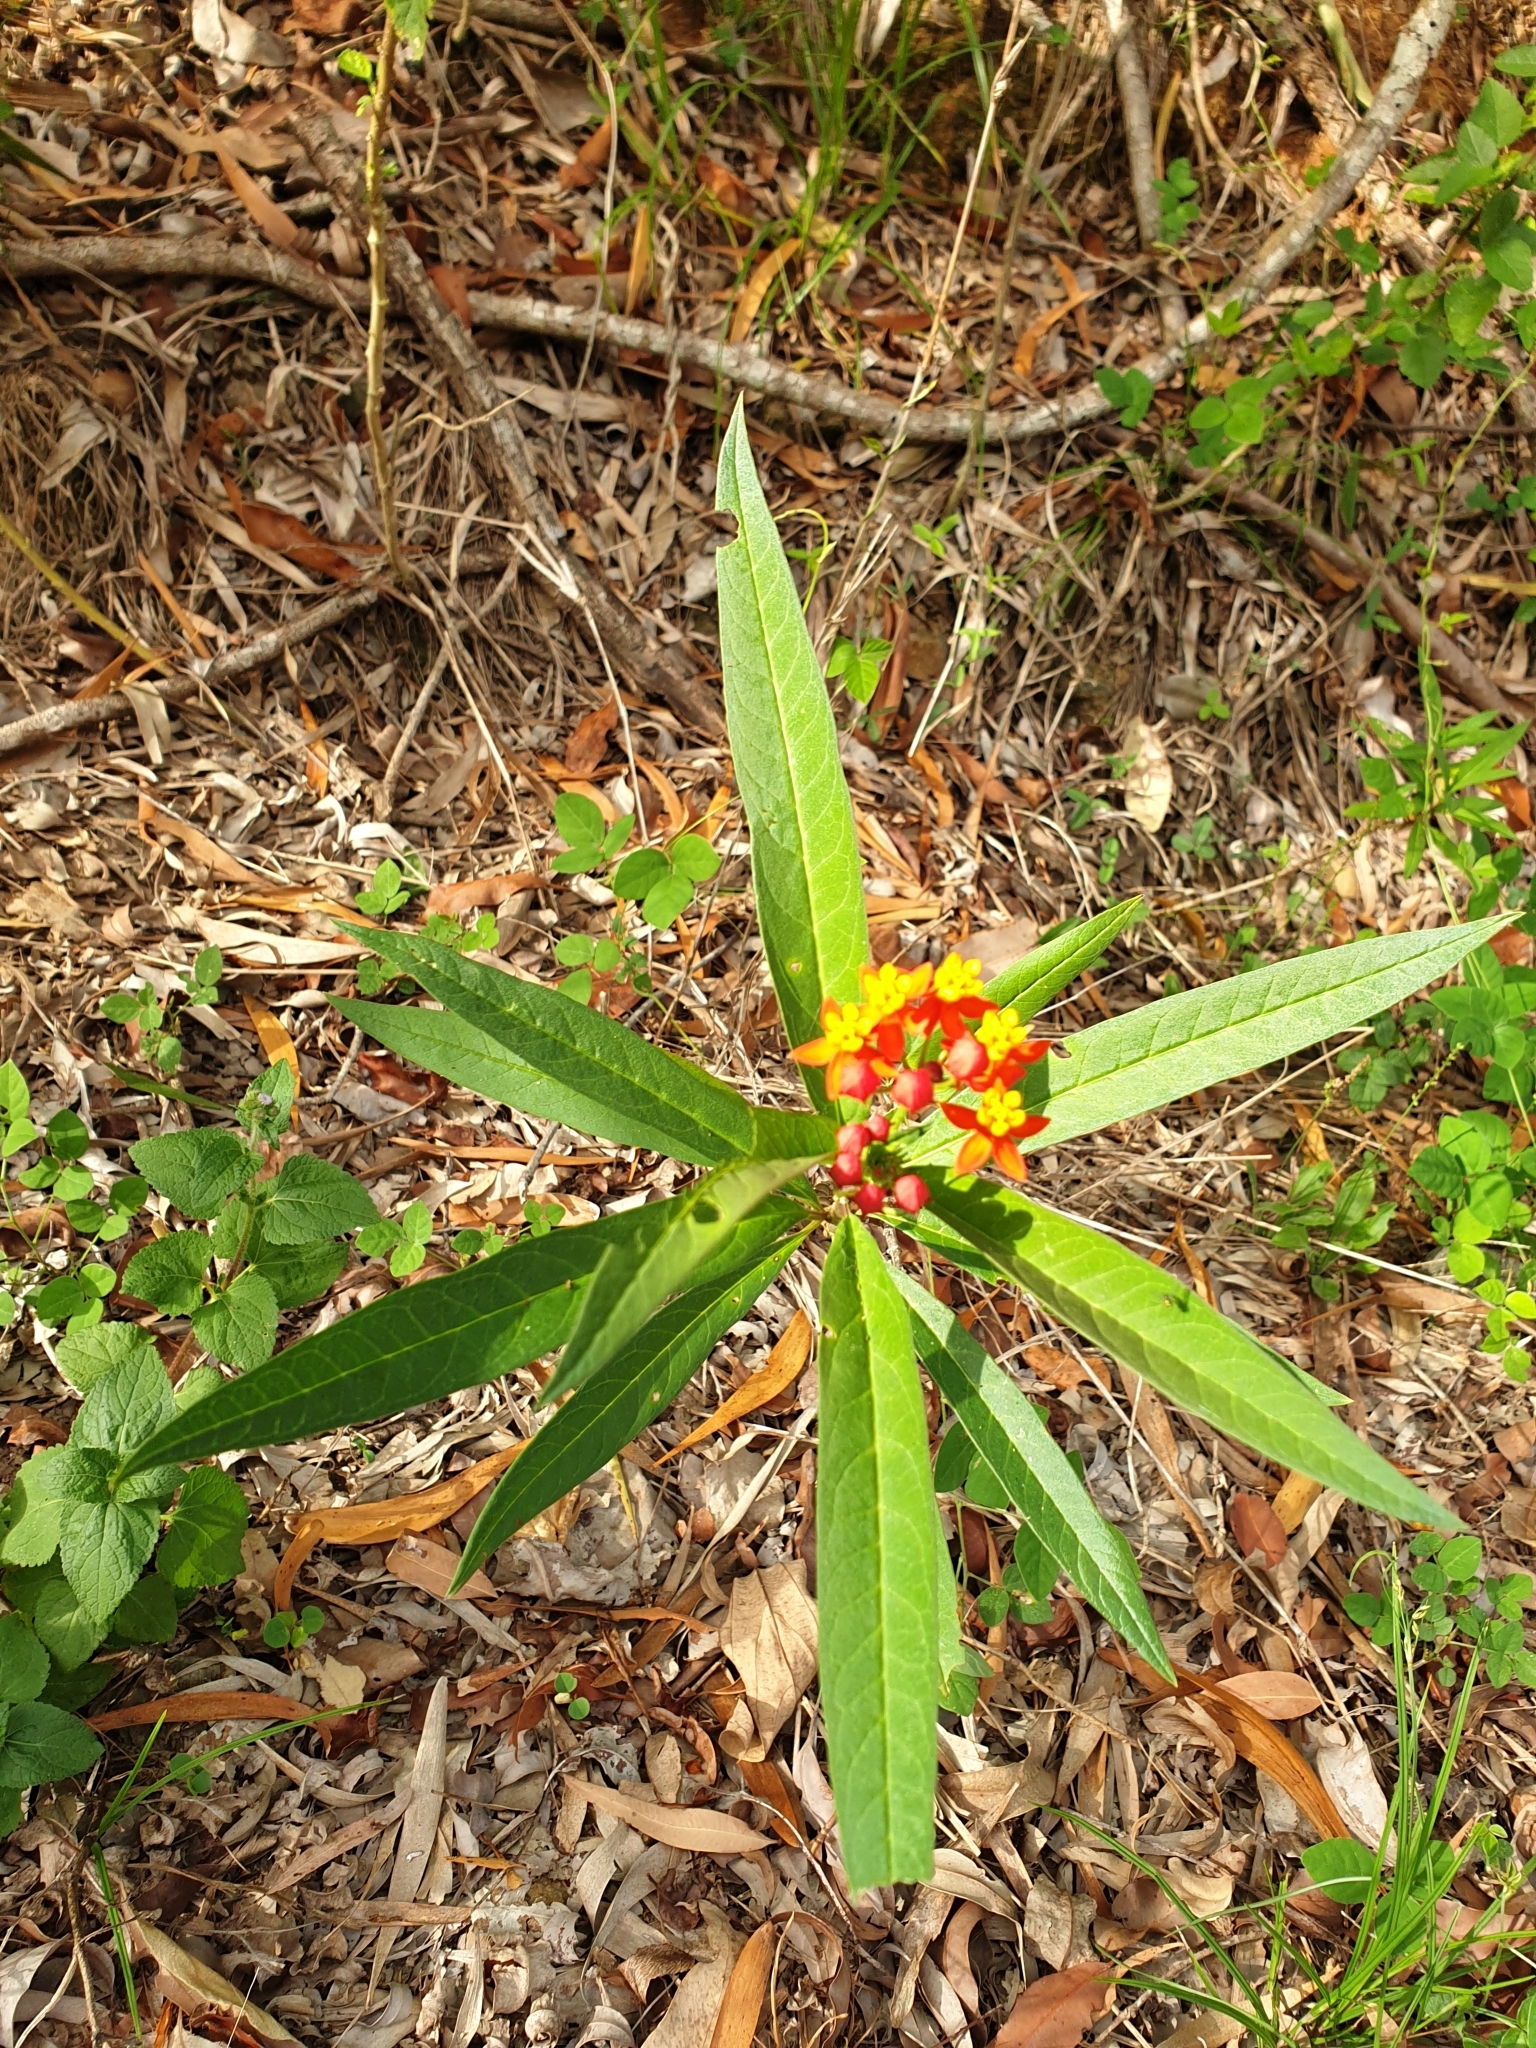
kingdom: Plantae
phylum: Tracheophyta
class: Magnoliopsida
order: Gentianales
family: Apocynaceae
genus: Asclepias
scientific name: Asclepias curassavica
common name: Bloodflower
